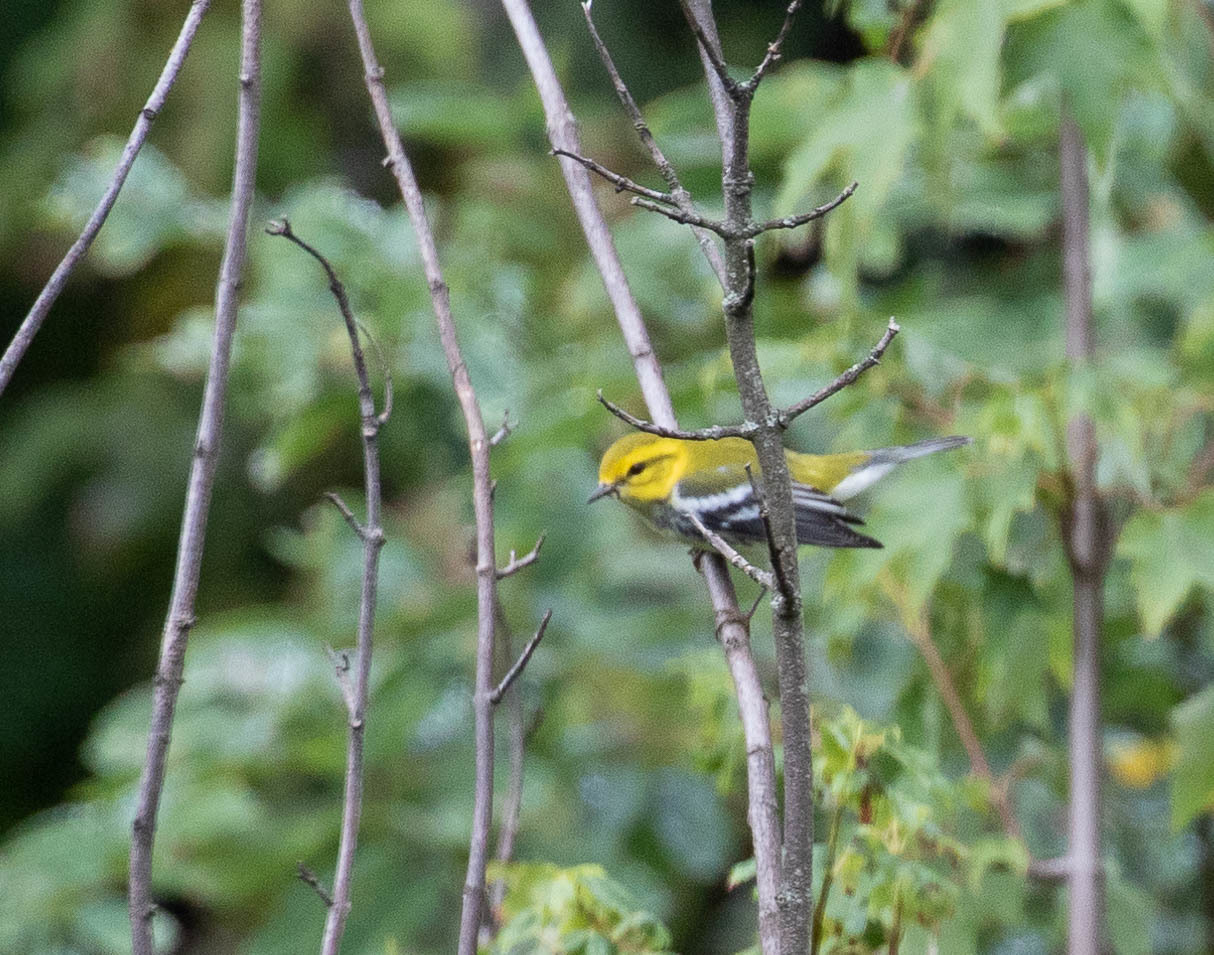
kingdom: Animalia
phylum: Chordata
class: Aves
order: Passeriformes
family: Parulidae
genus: Setophaga
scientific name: Setophaga virens
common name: Black-throated green warbler
